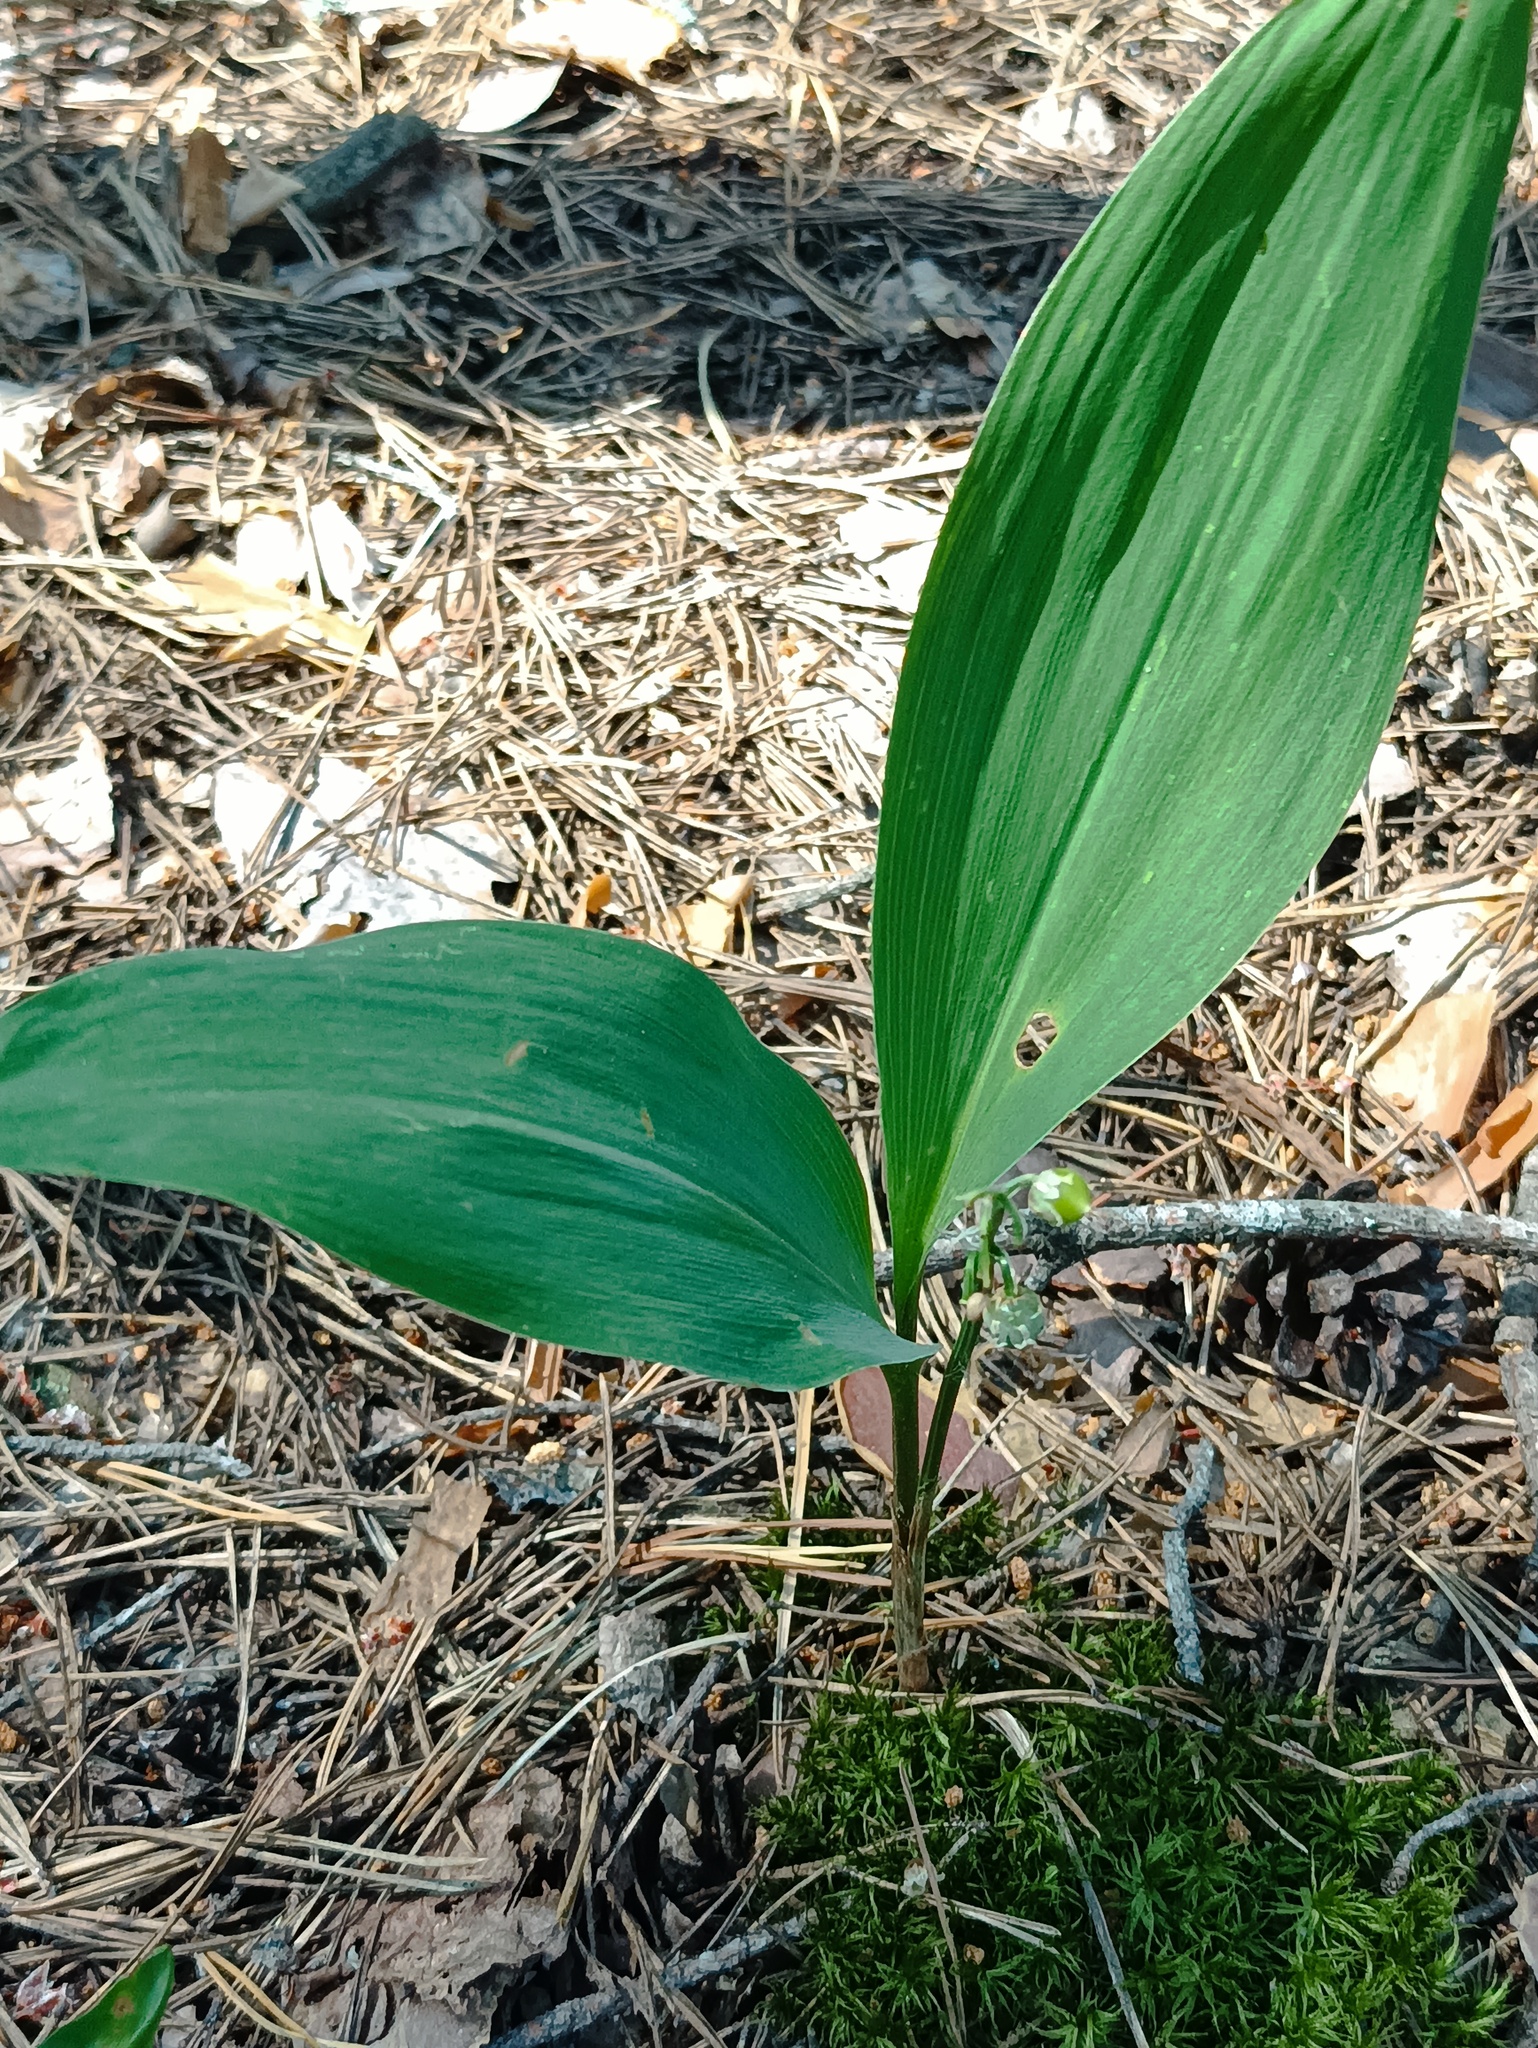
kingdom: Plantae
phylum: Tracheophyta
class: Liliopsida
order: Asparagales
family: Asparagaceae
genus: Convallaria
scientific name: Convallaria majalis
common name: Lily-of-the-valley
